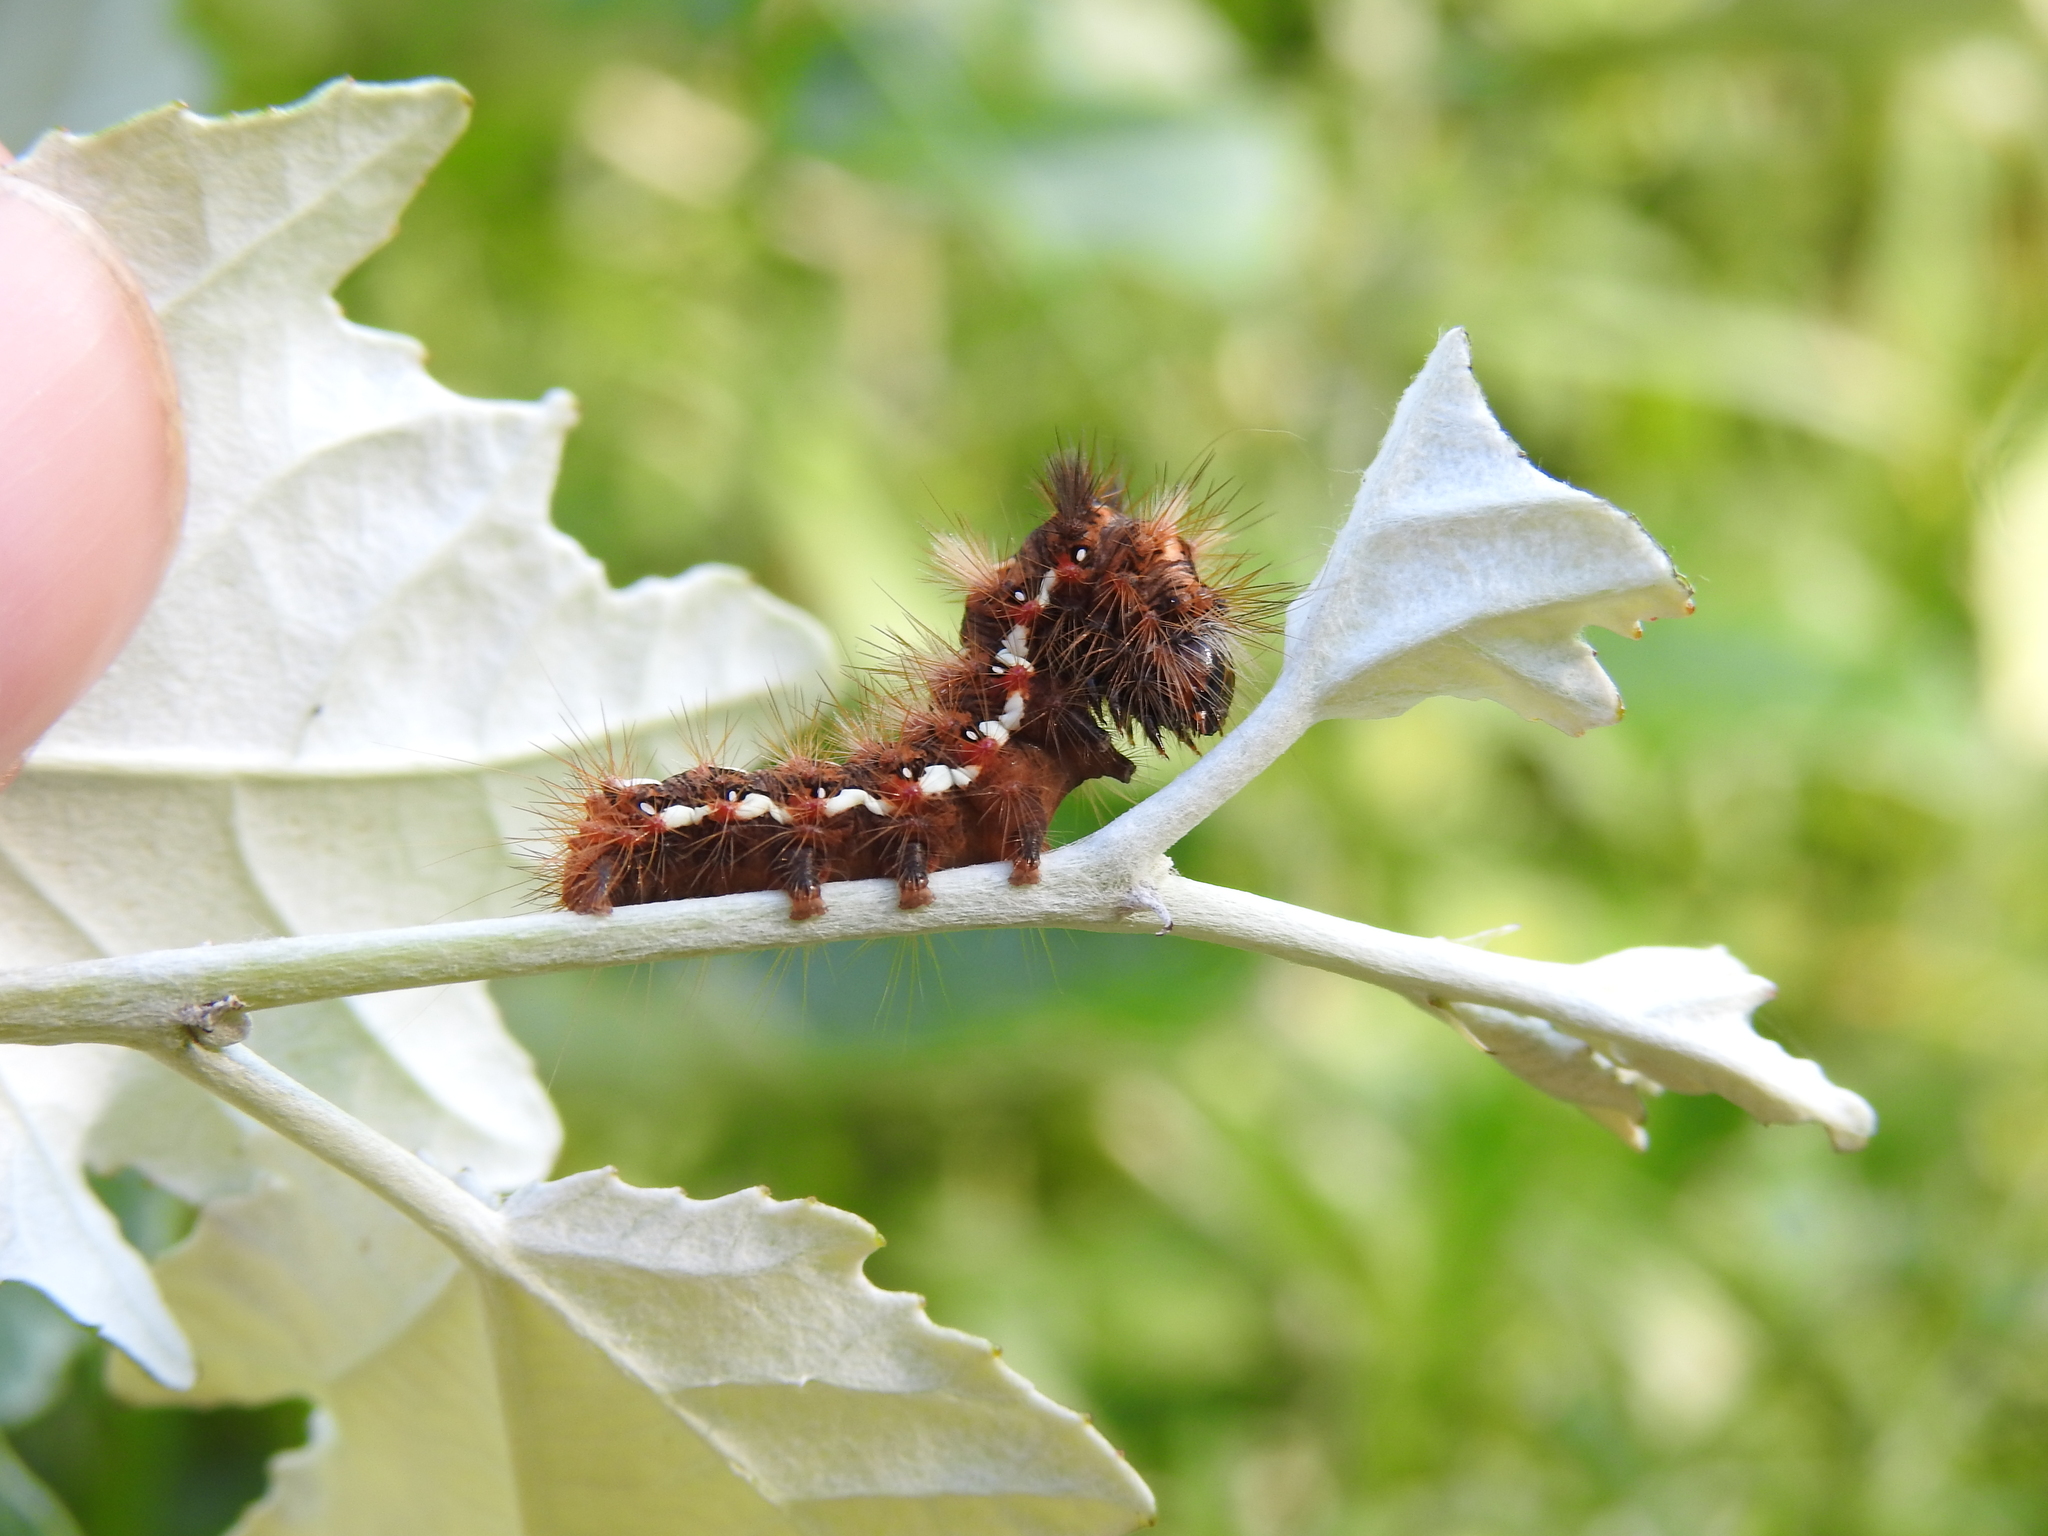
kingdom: Animalia
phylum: Arthropoda
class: Insecta
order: Lepidoptera
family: Noctuidae
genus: Acronicta
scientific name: Acronicta rumicis
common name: Knot grass
